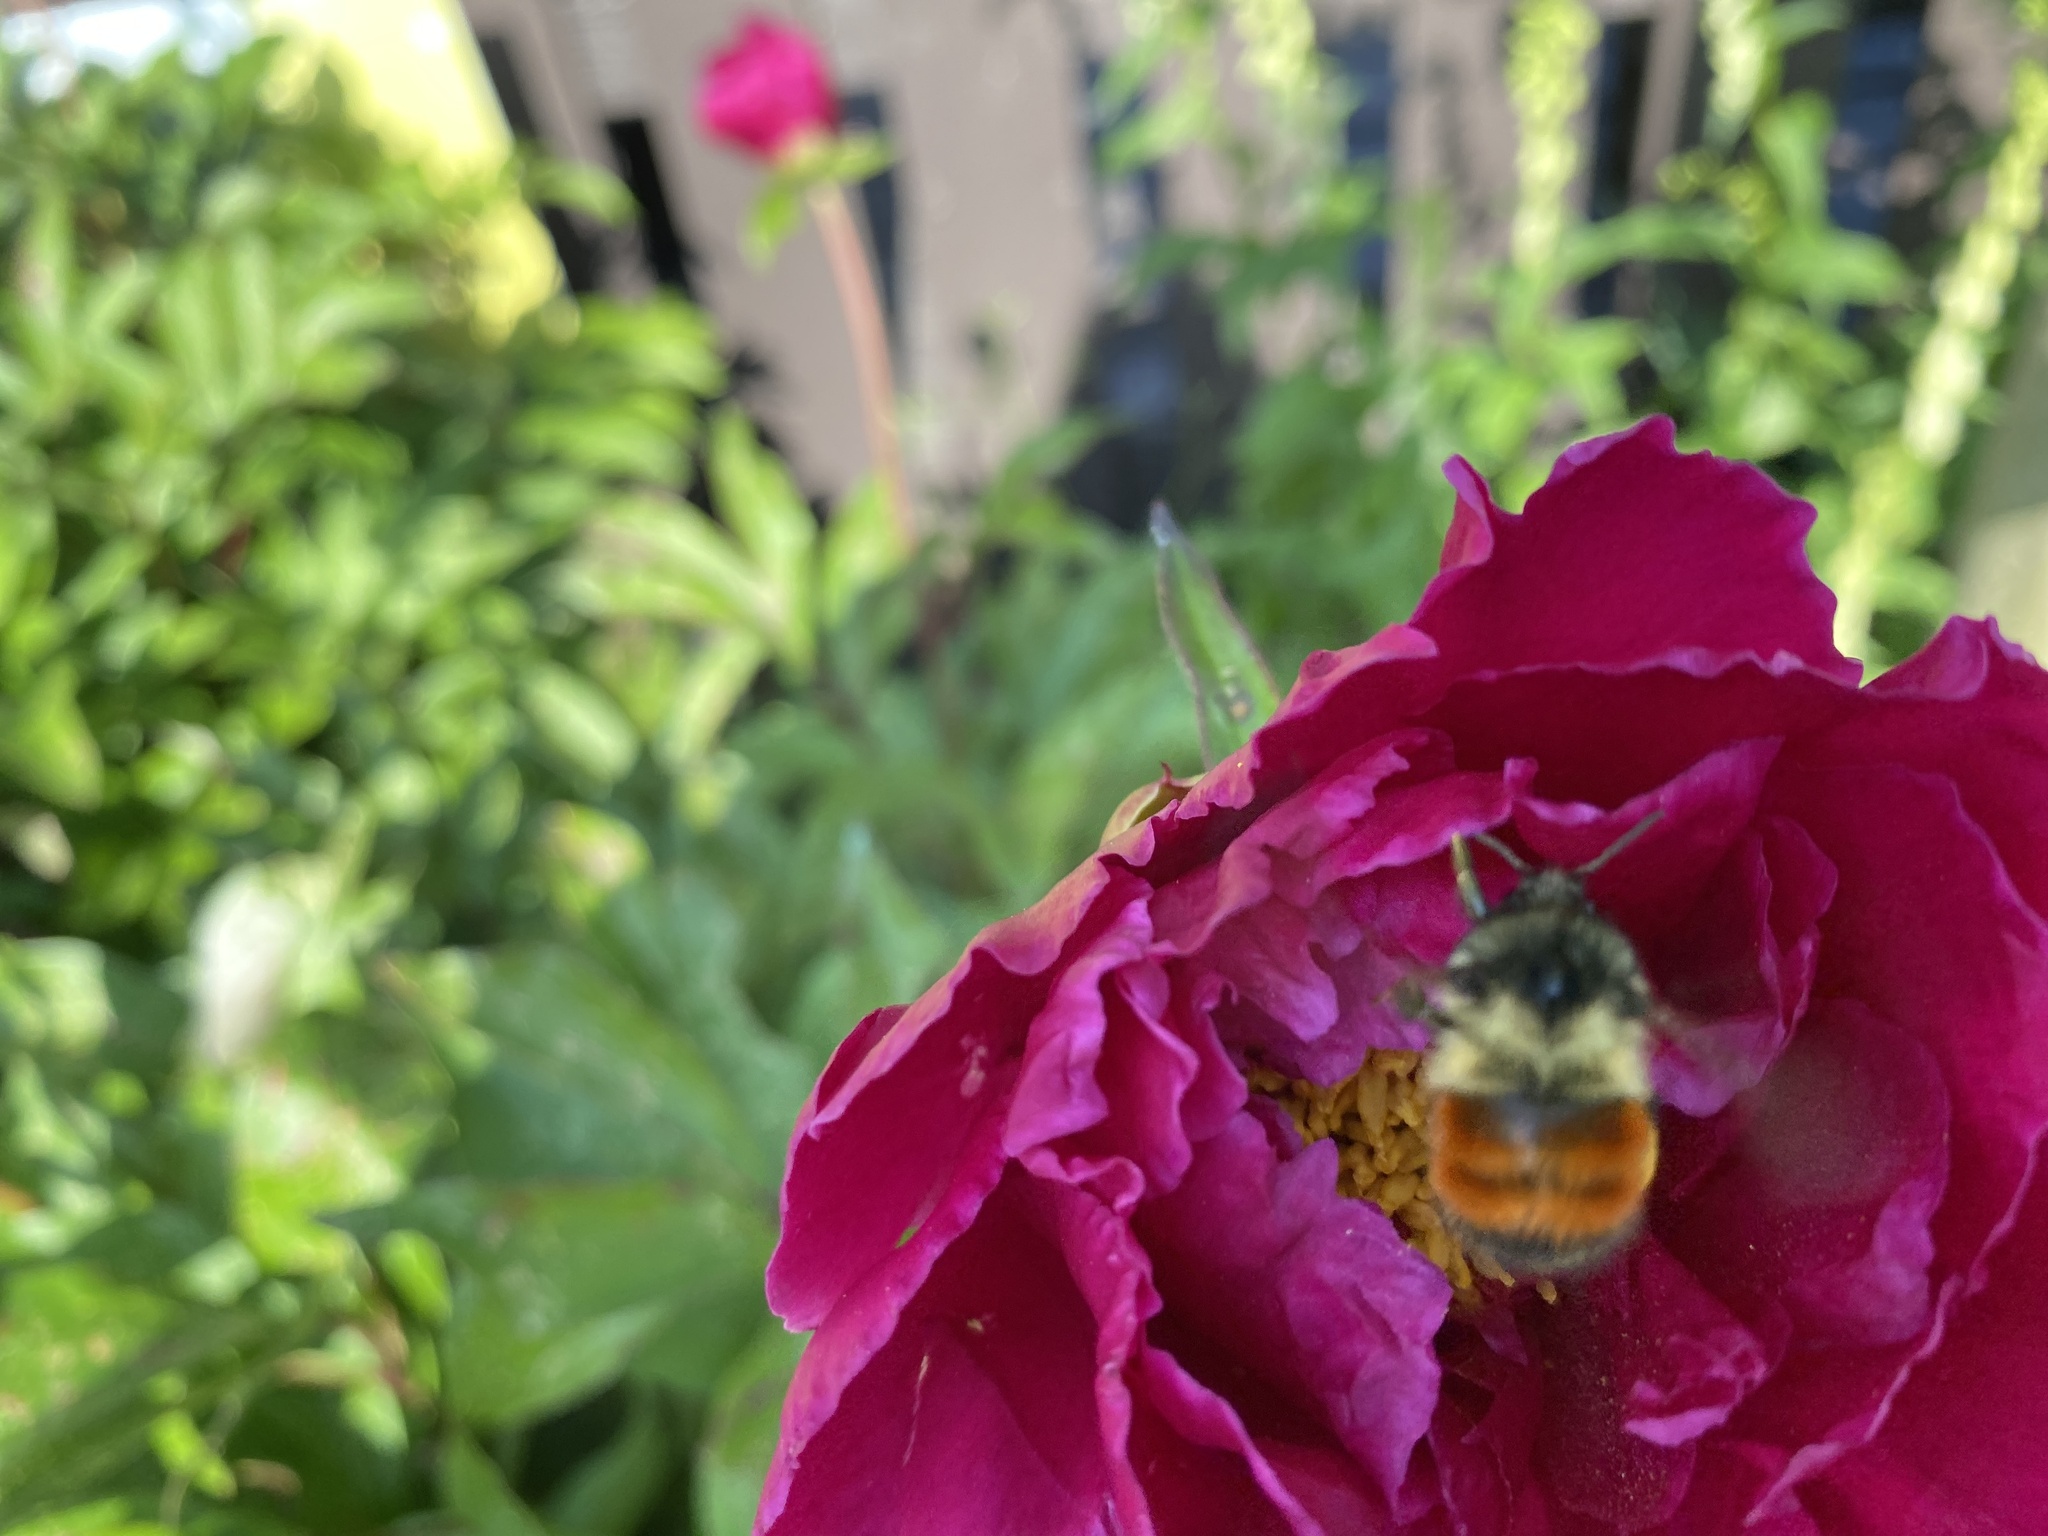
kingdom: Animalia
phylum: Arthropoda
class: Insecta
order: Hymenoptera
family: Apidae
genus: Bombus
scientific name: Bombus melanopygus
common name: Black tail bumble bee
